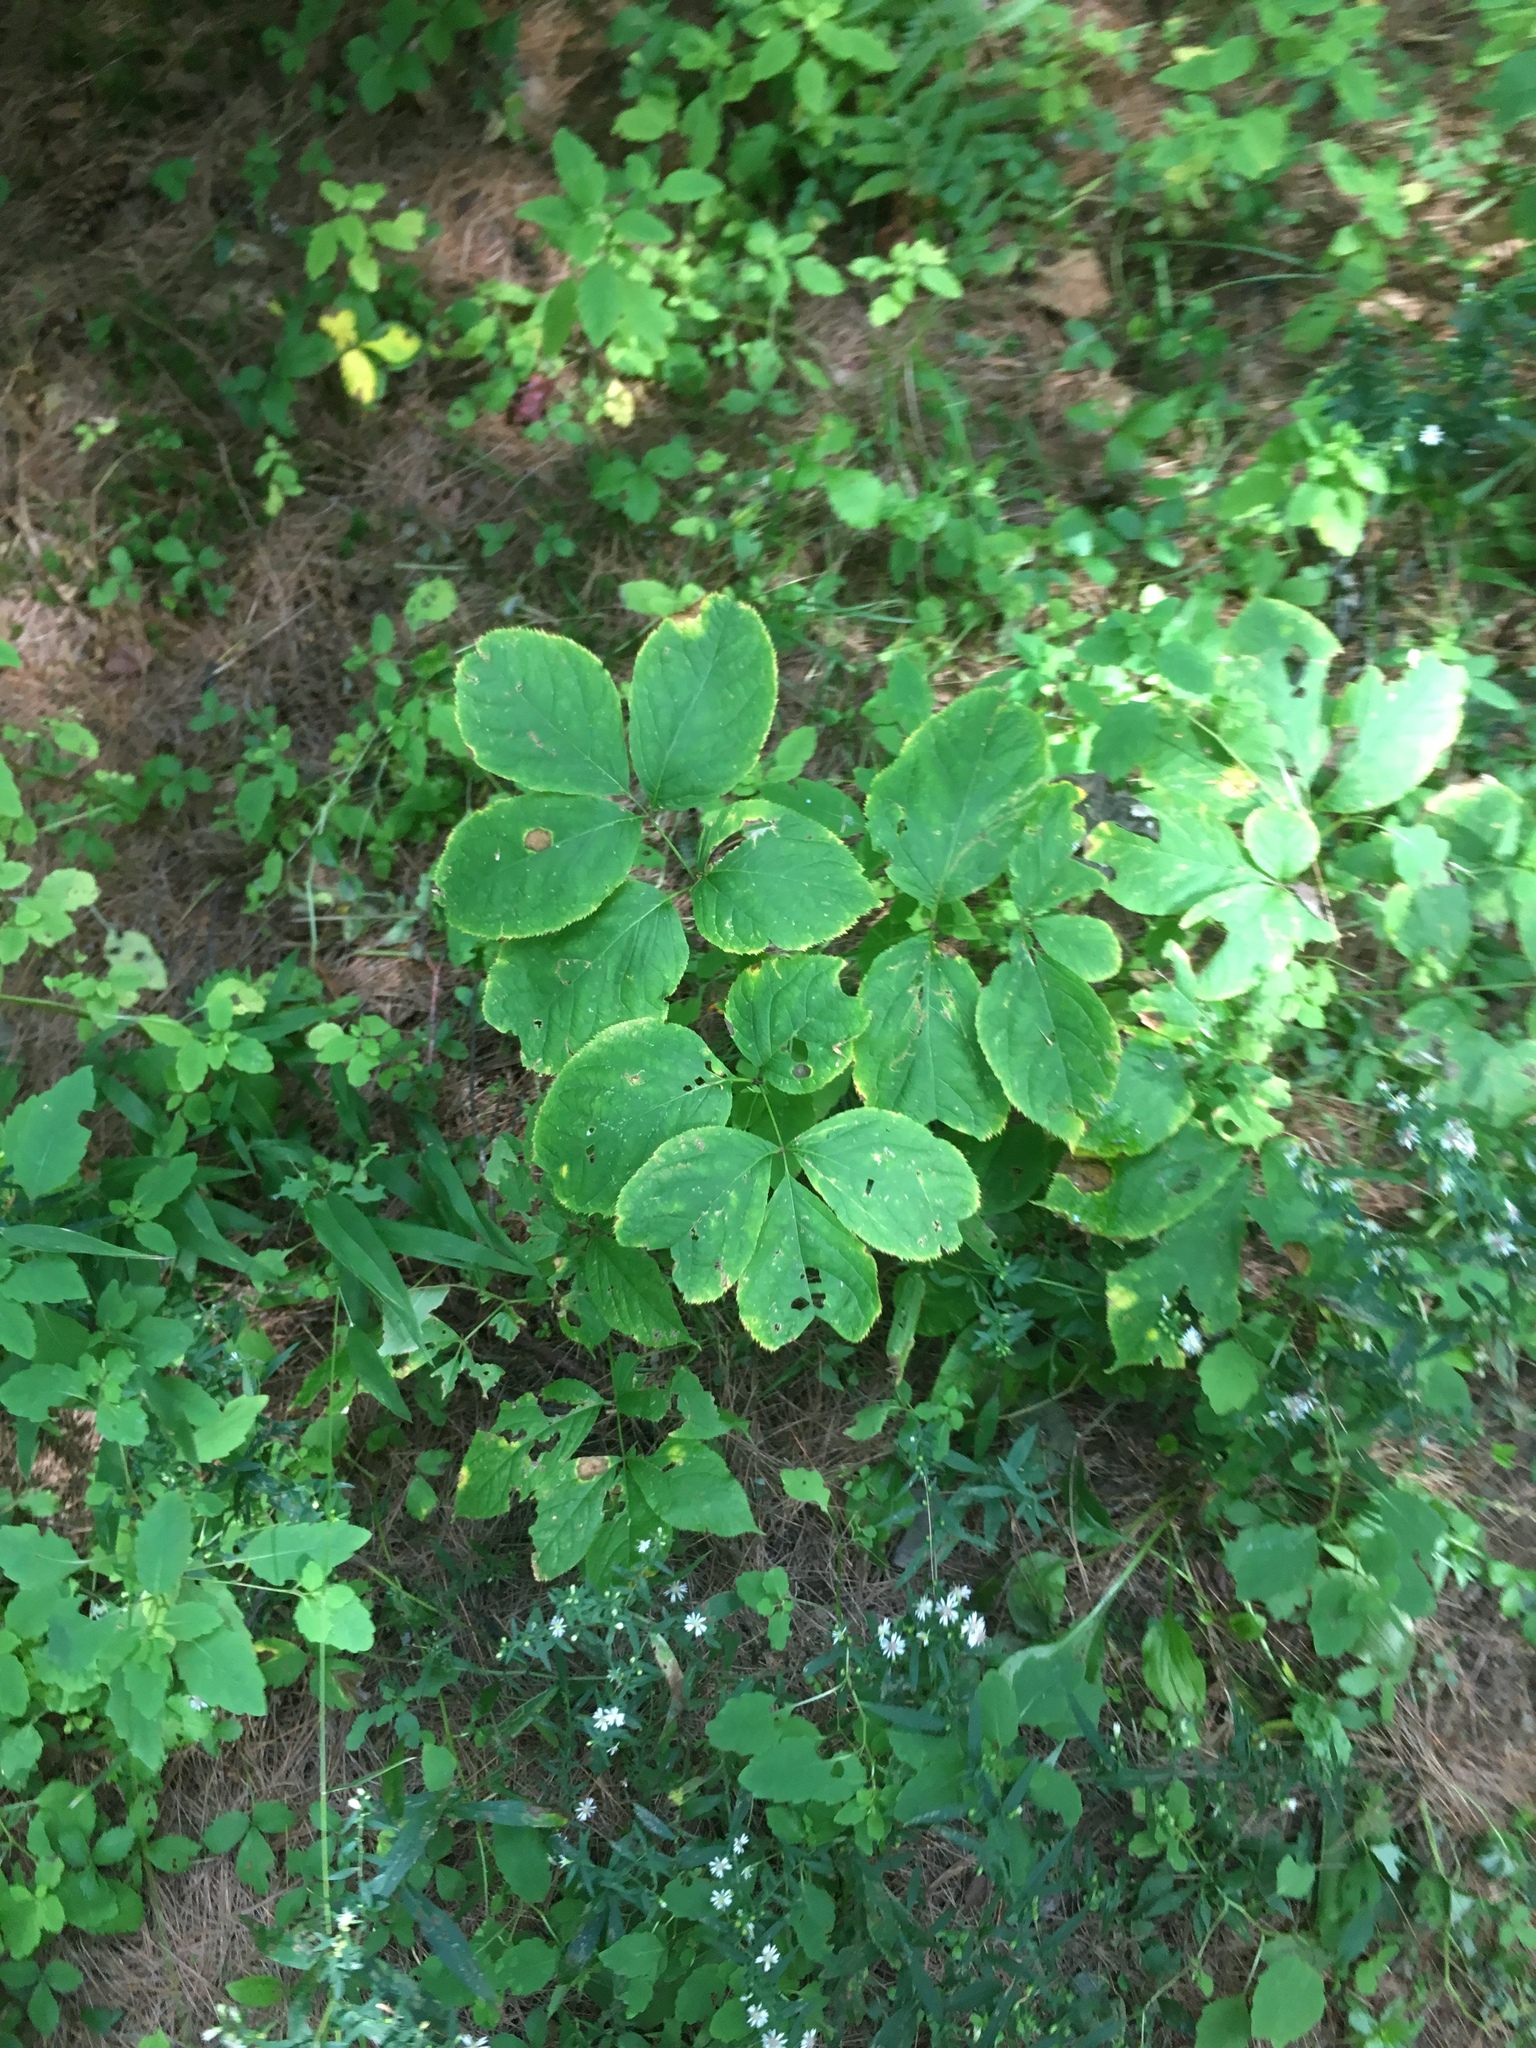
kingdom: Plantae
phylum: Tracheophyta
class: Magnoliopsida
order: Apiales
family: Araliaceae
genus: Aralia
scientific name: Aralia nudicaulis
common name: Wild sarsaparilla
